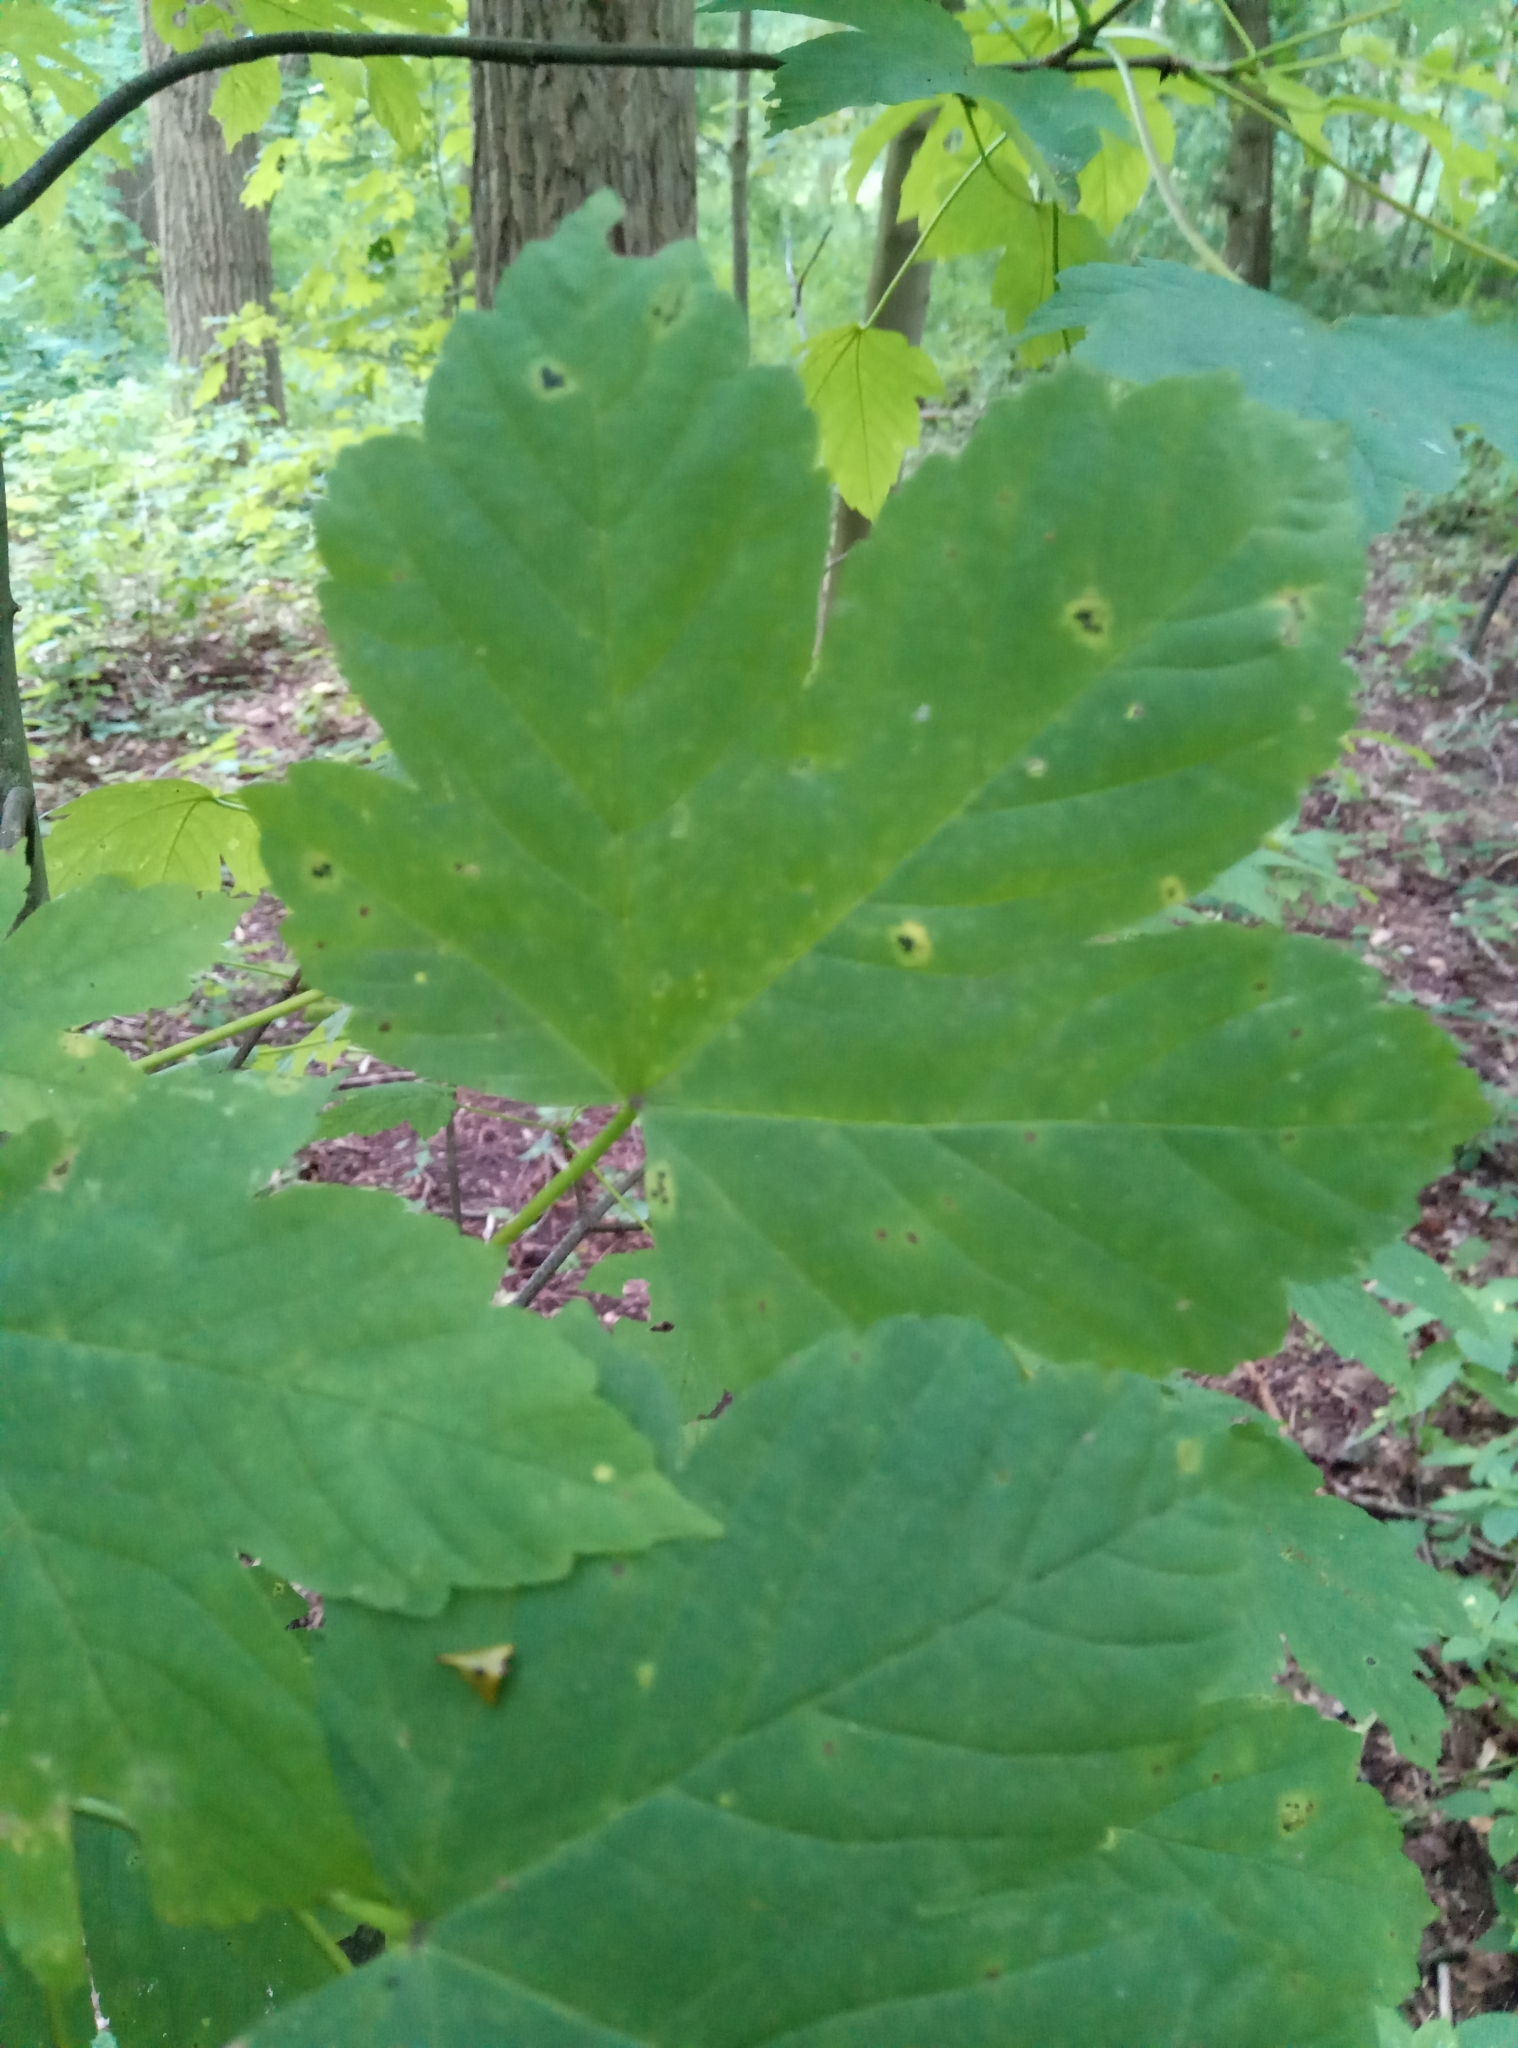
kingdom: Plantae
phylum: Tracheophyta
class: Magnoliopsida
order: Sapindales
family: Sapindaceae
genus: Acer
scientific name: Acer pseudoplatanus
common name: Sycamore
